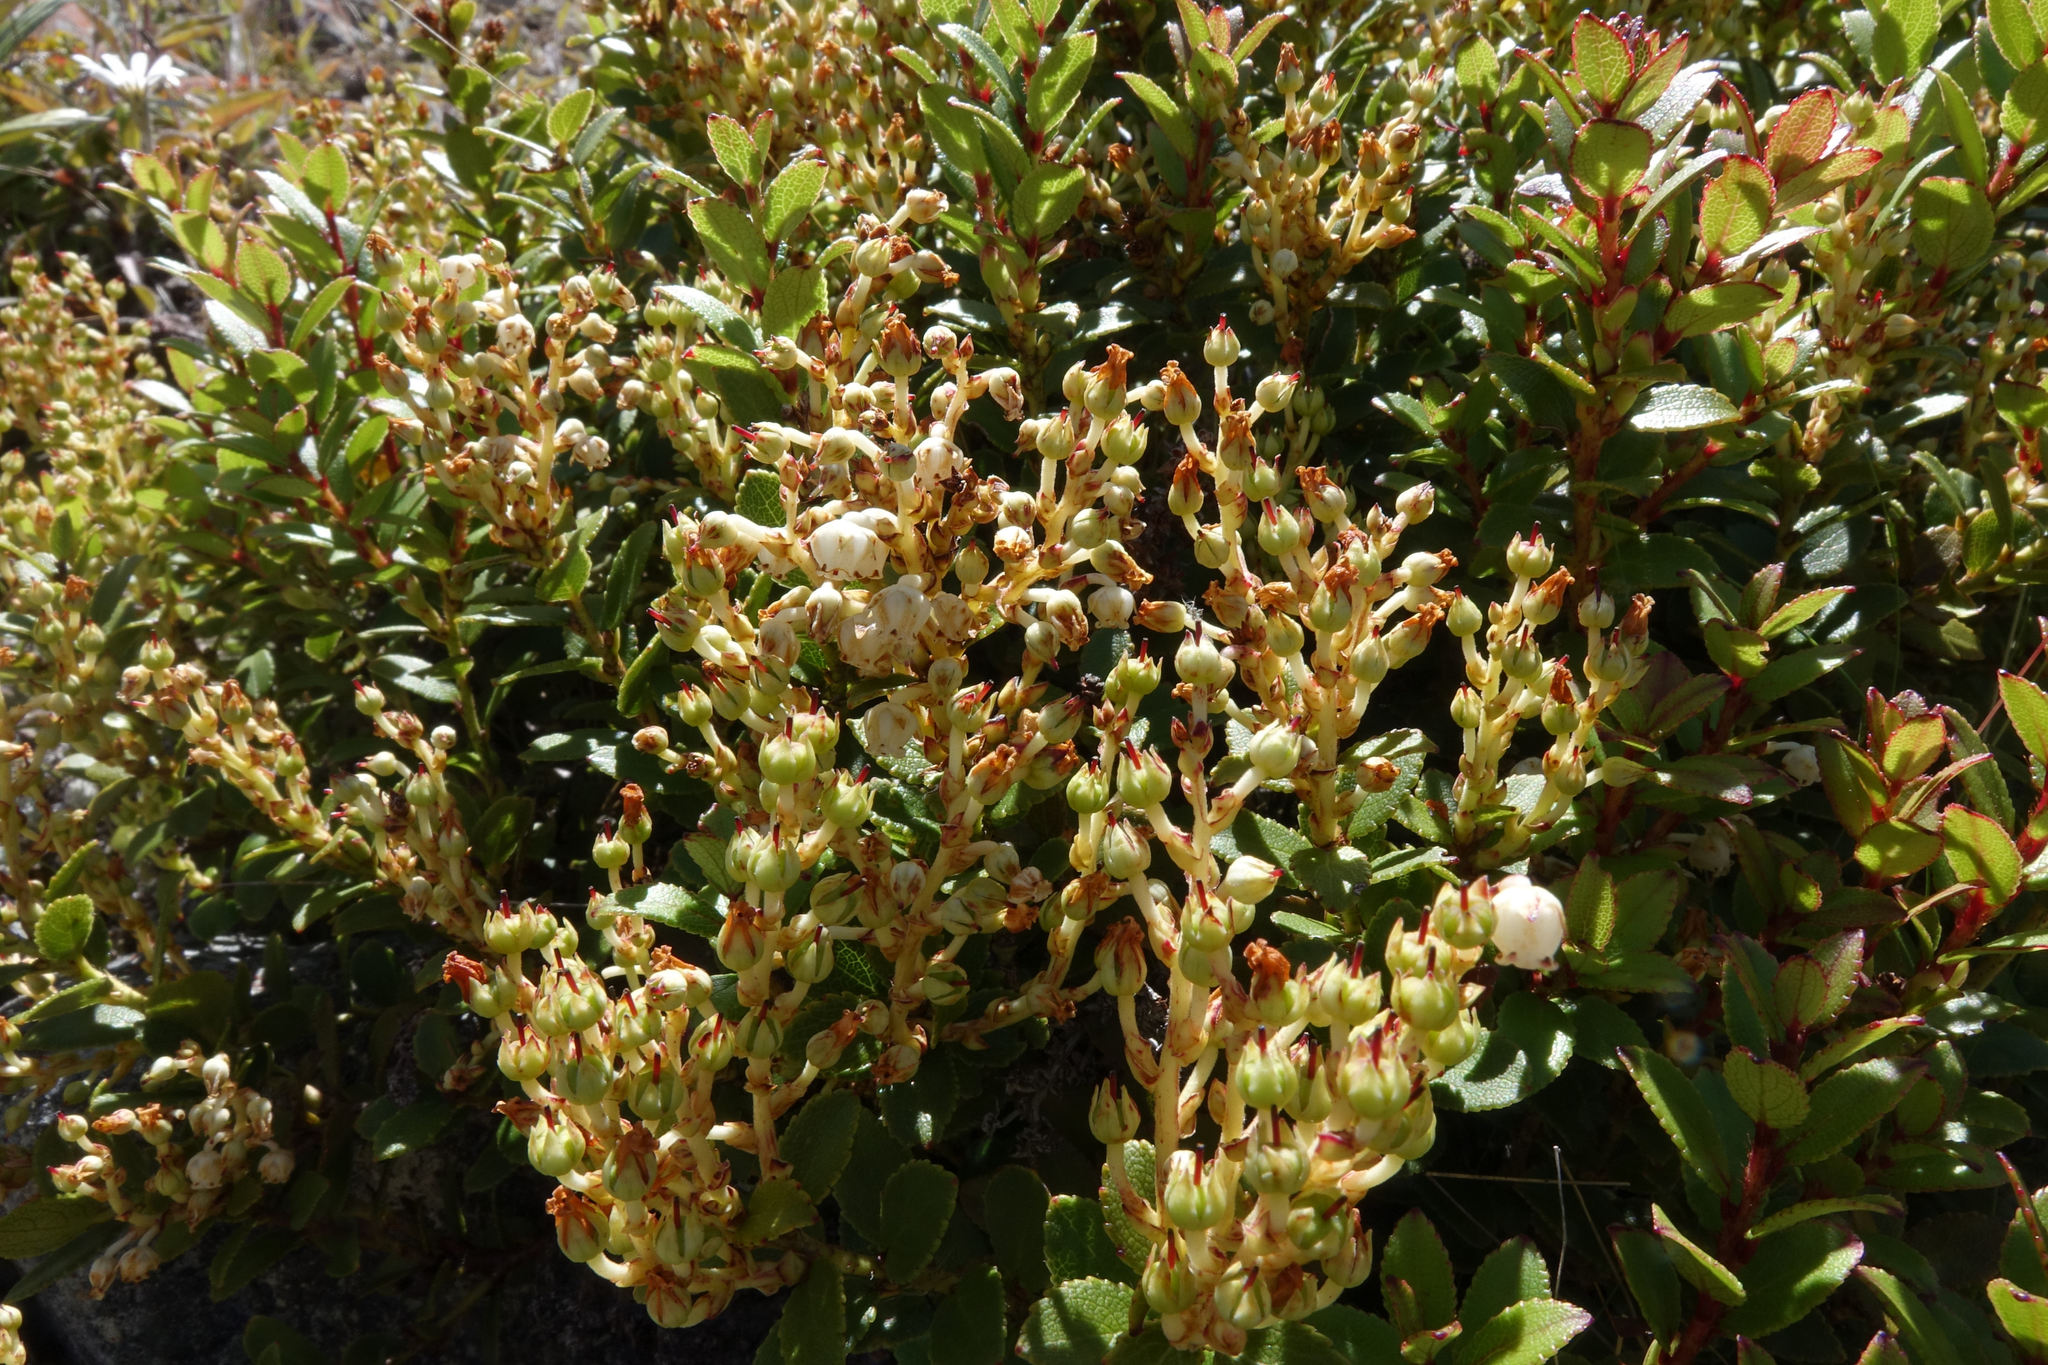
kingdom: Plantae
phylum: Tracheophyta
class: Magnoliopsida
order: Ericales
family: Ericaceae
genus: Gaultheria
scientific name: Gaultheria crassa
